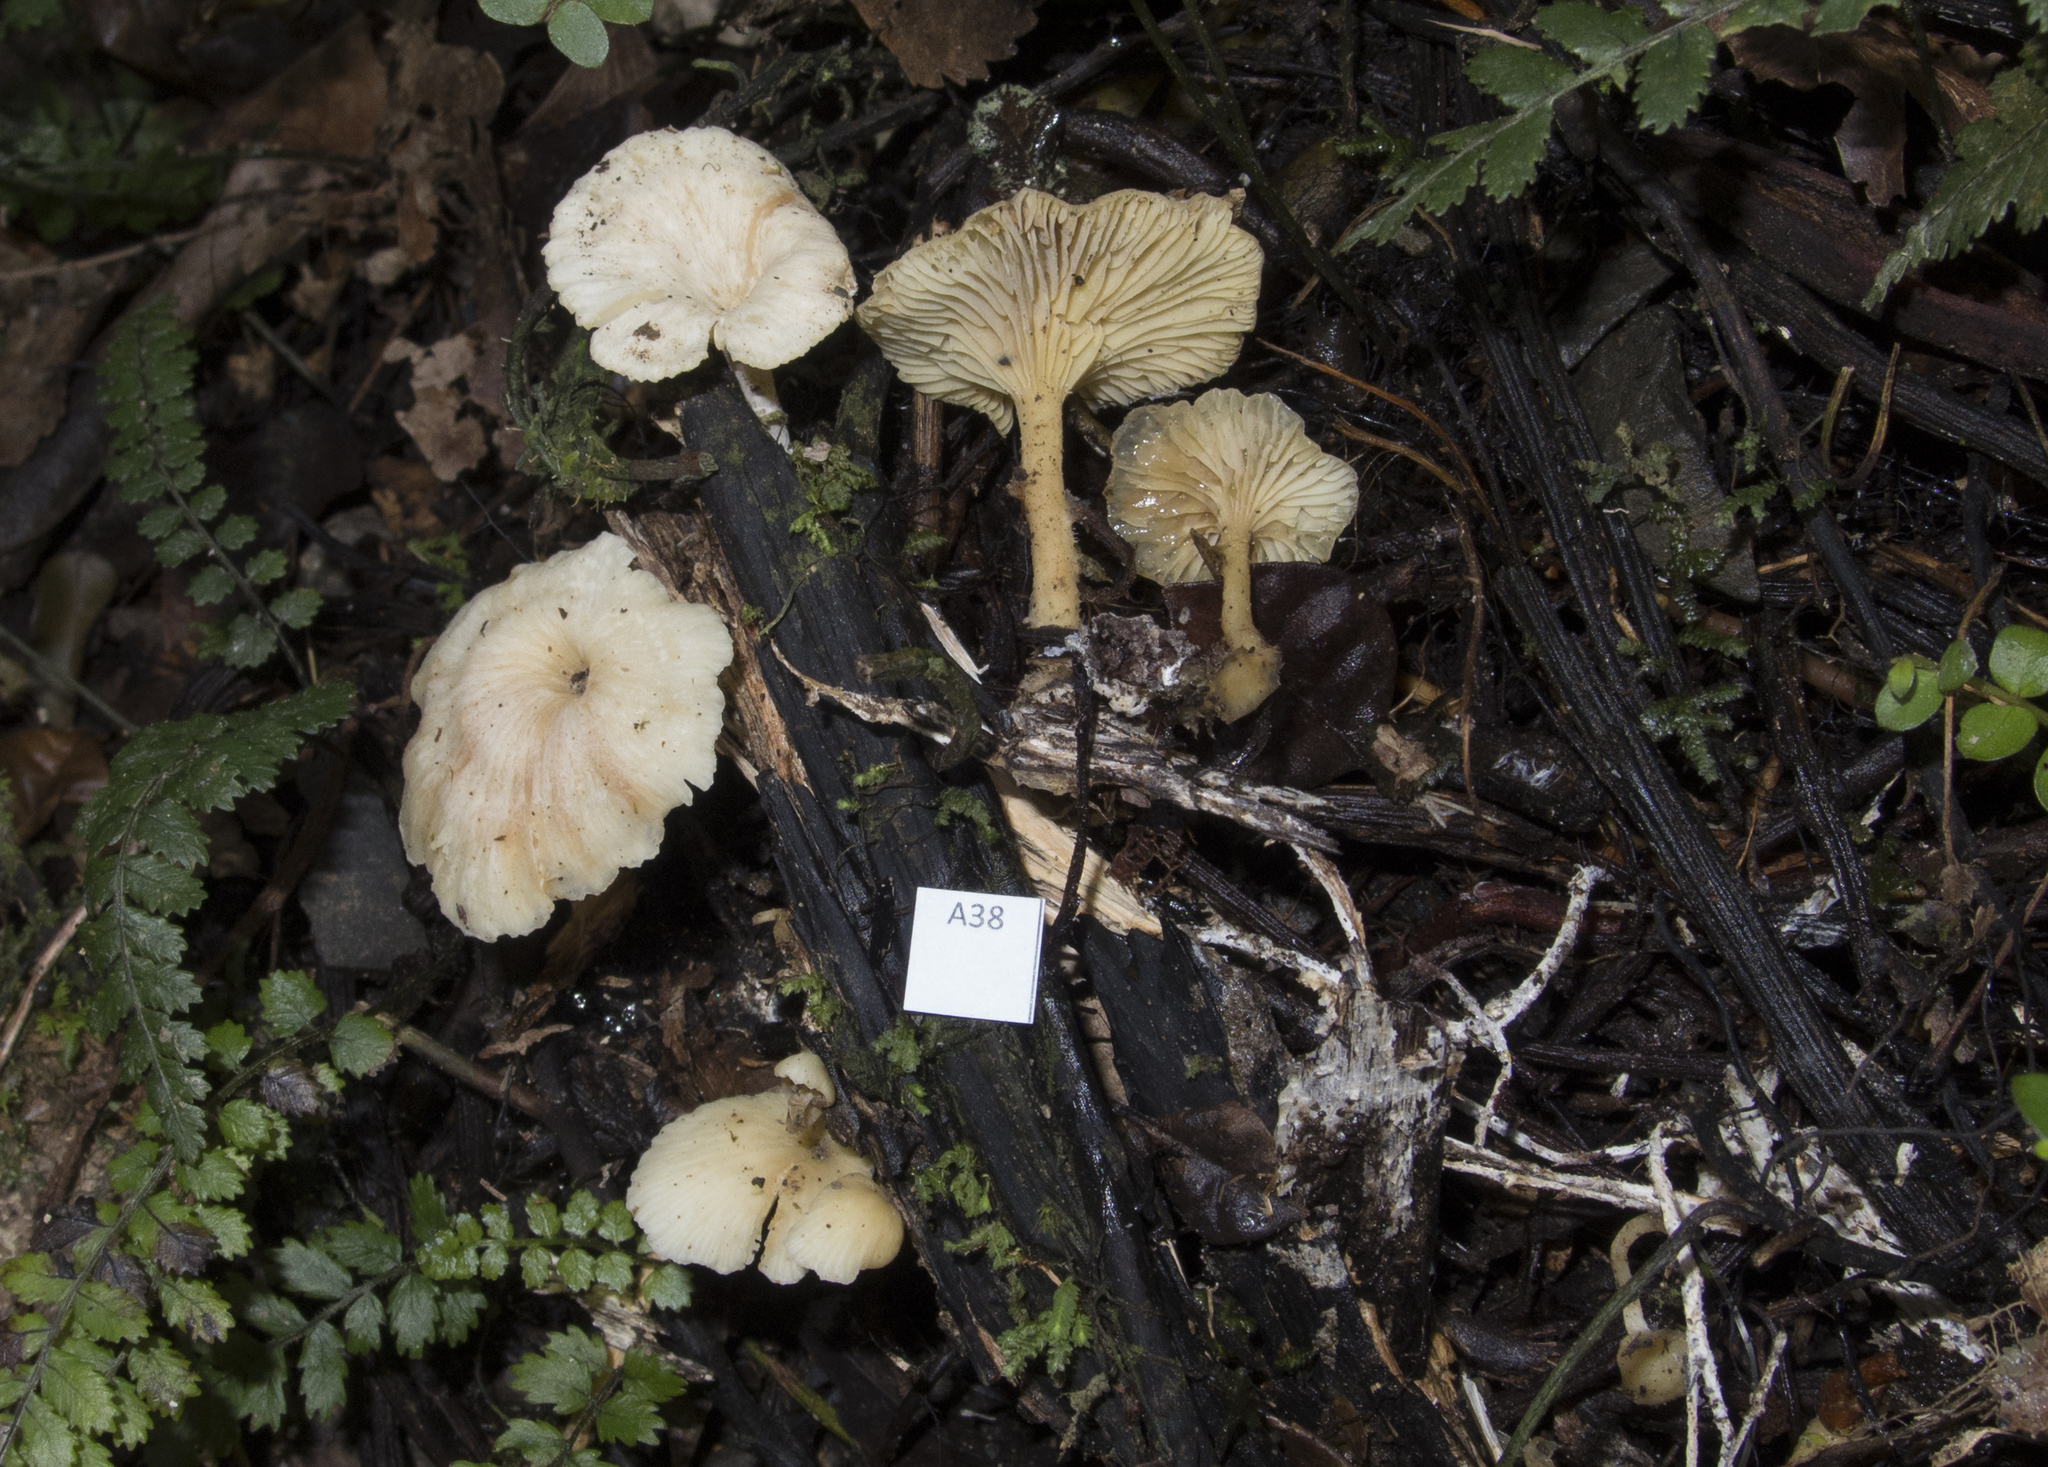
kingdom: Fungi
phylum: Basidiomycota
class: Agaricomycetes
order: Agaricales
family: Tricholomataceae
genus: Rhizocybe
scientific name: Rhizocybe albida
